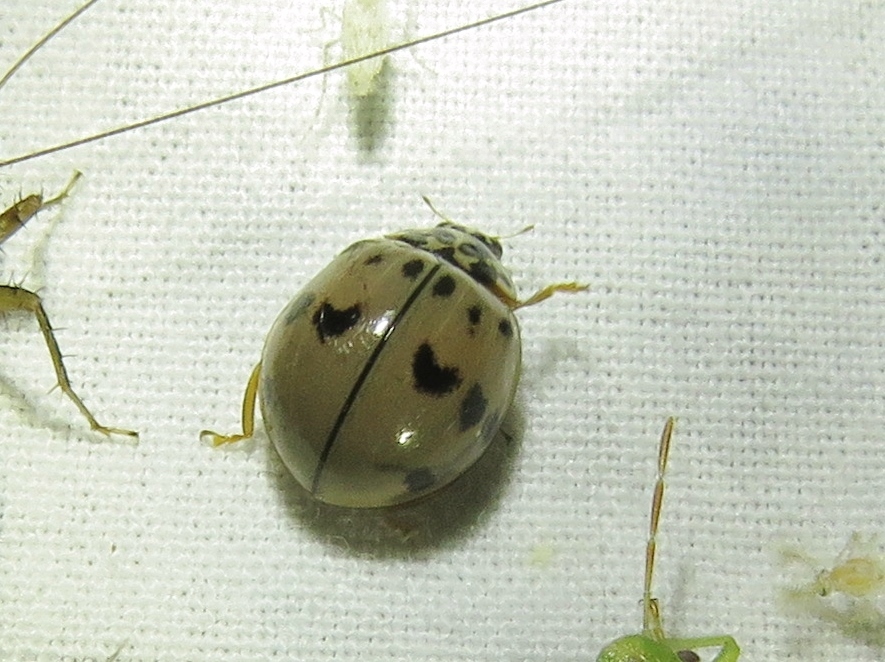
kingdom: Animalia
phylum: Arthropoda
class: Insecta
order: Coleoptera
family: Coccinellidae
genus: Olla
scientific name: Olla v-nigrum
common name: Ashy gray lady beetle
